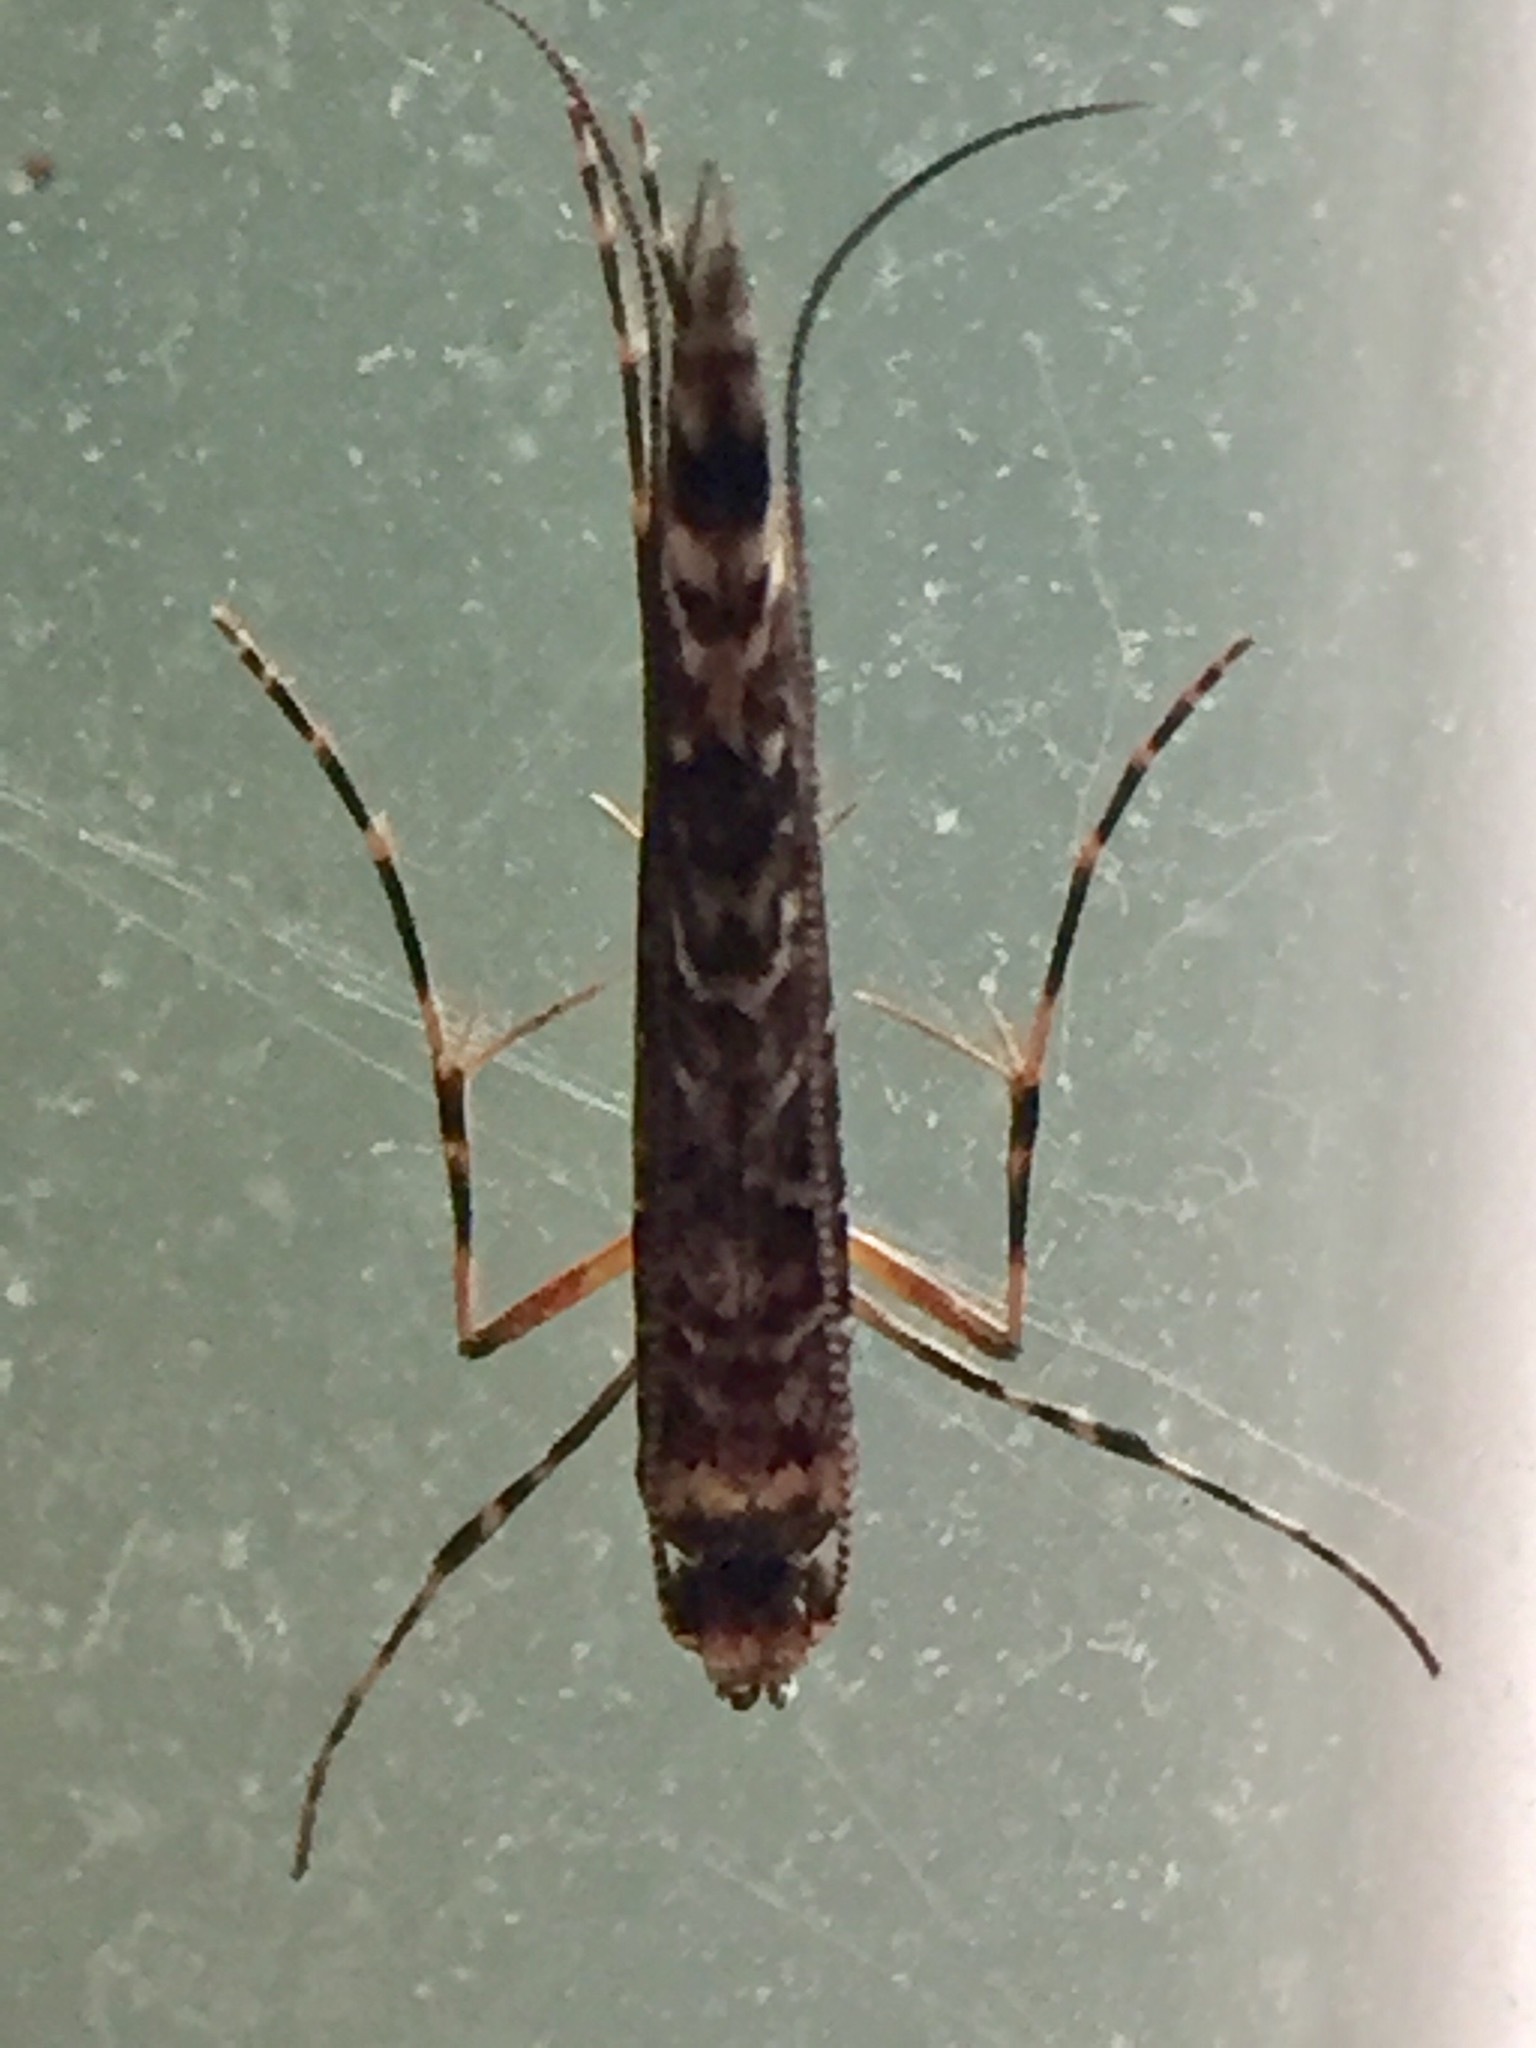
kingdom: Animalia
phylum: Arthropoda
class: Insecta
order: Lepidoptera
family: Gracillariidae
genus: Conopomorpha
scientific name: Conopomorpha cyanospila
